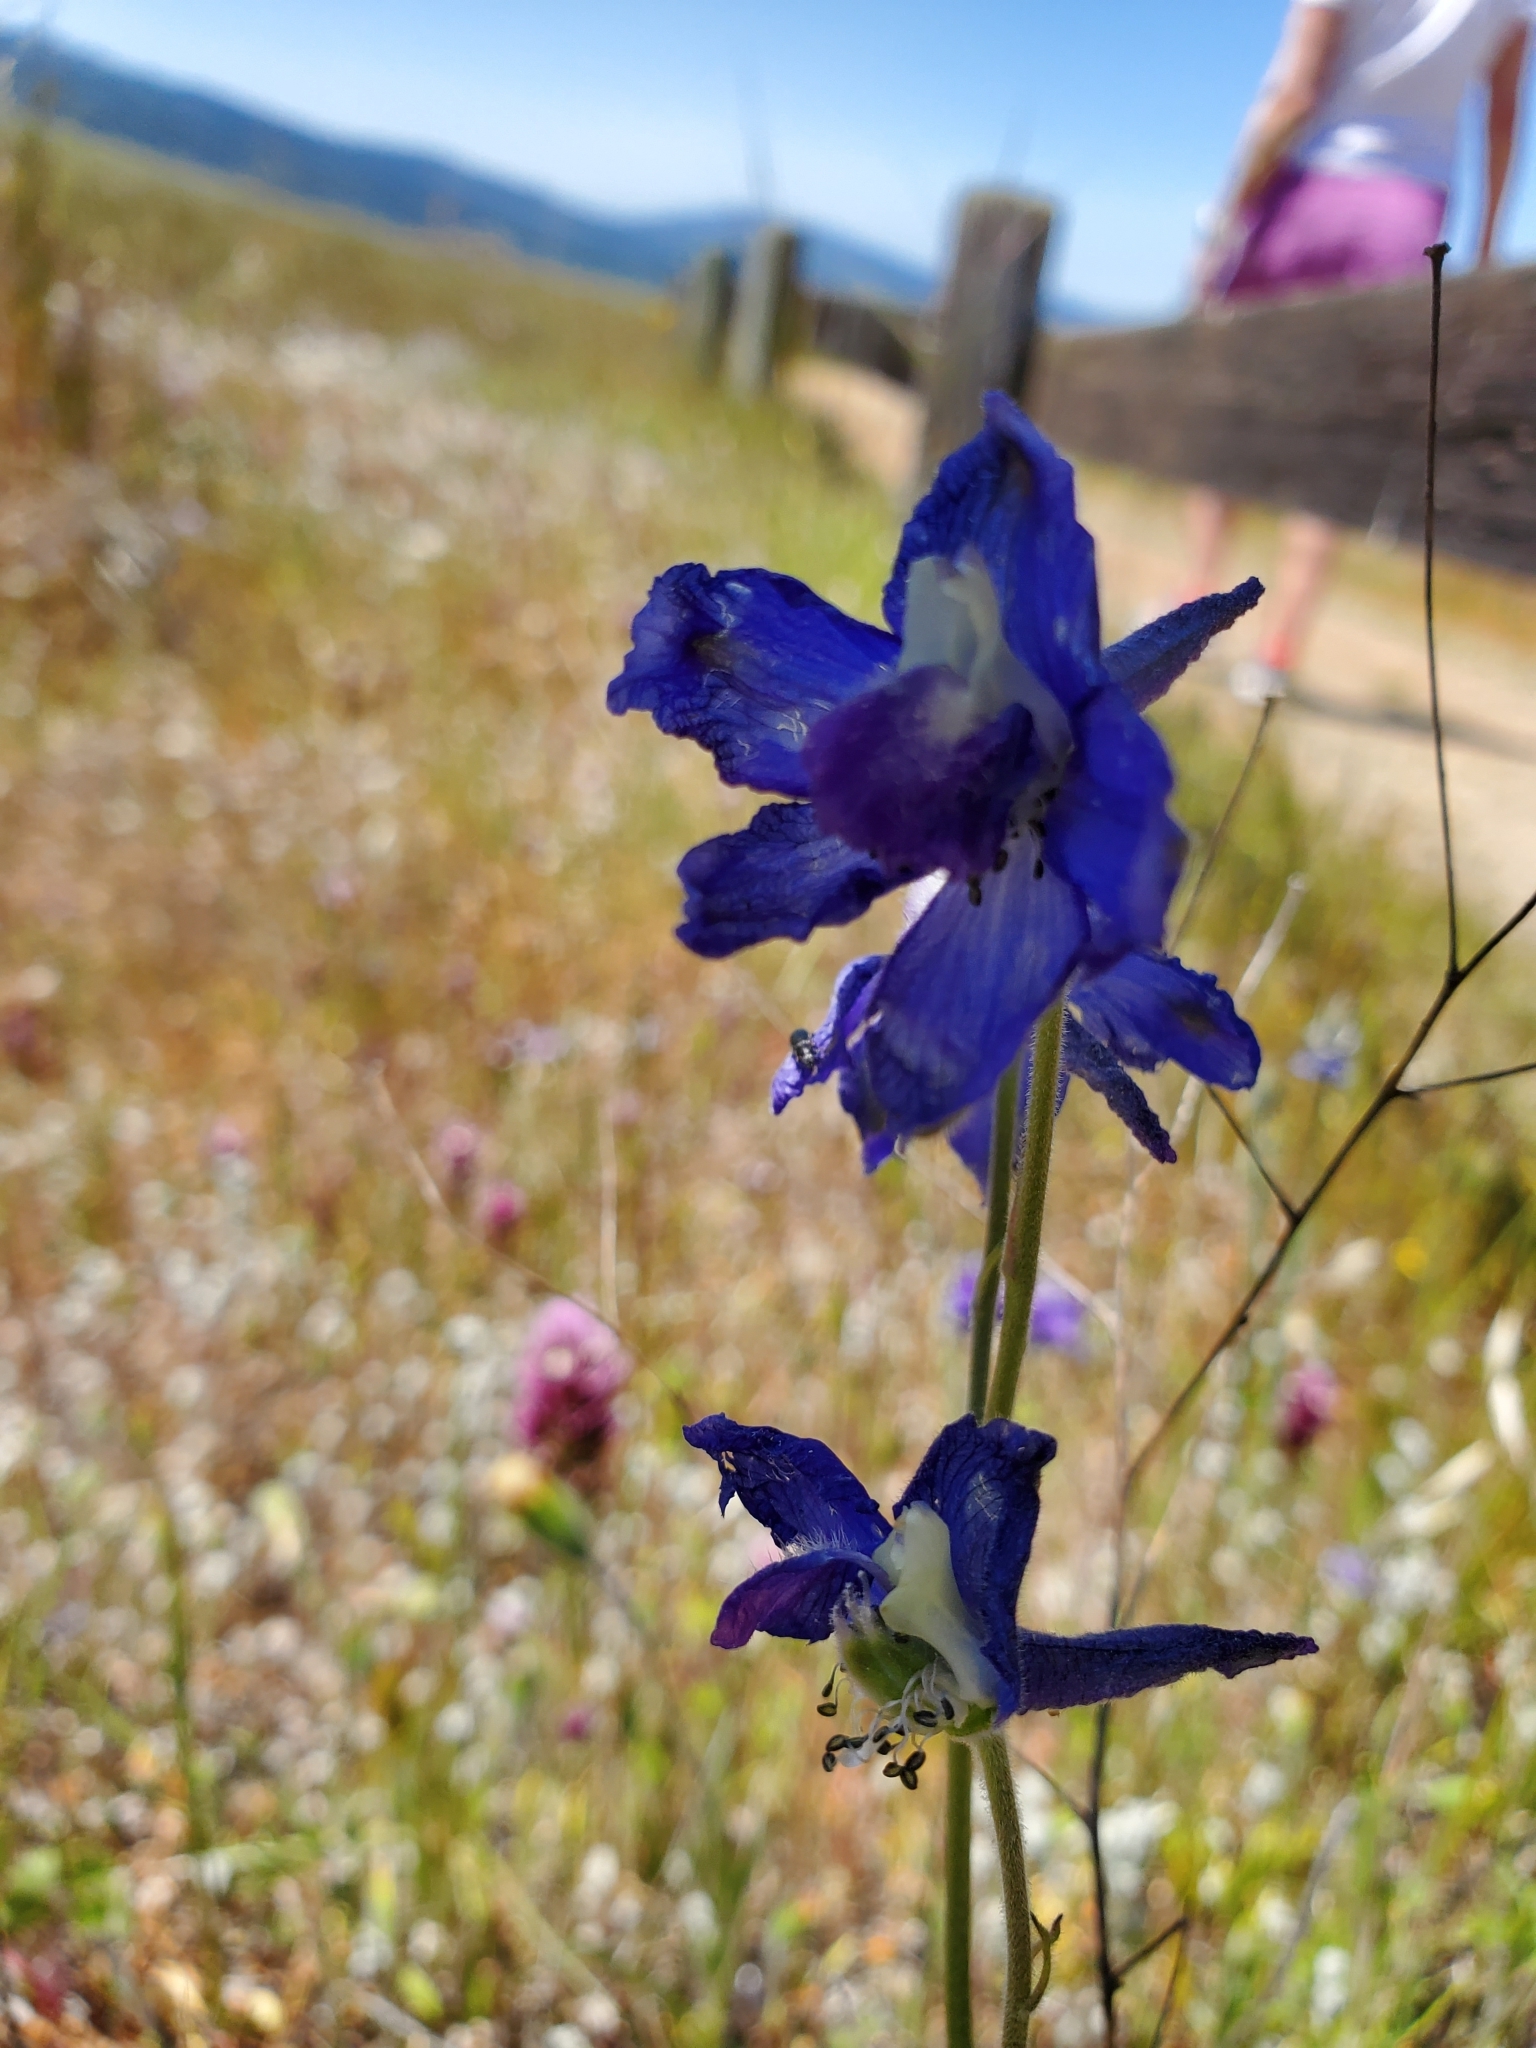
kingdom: Plantae
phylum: Tracheophyta
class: Magnoliopsida
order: Ranunculales
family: Ranunculaceae
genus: Delphinium
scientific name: Delphinium variegatum
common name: Royal larkspur
